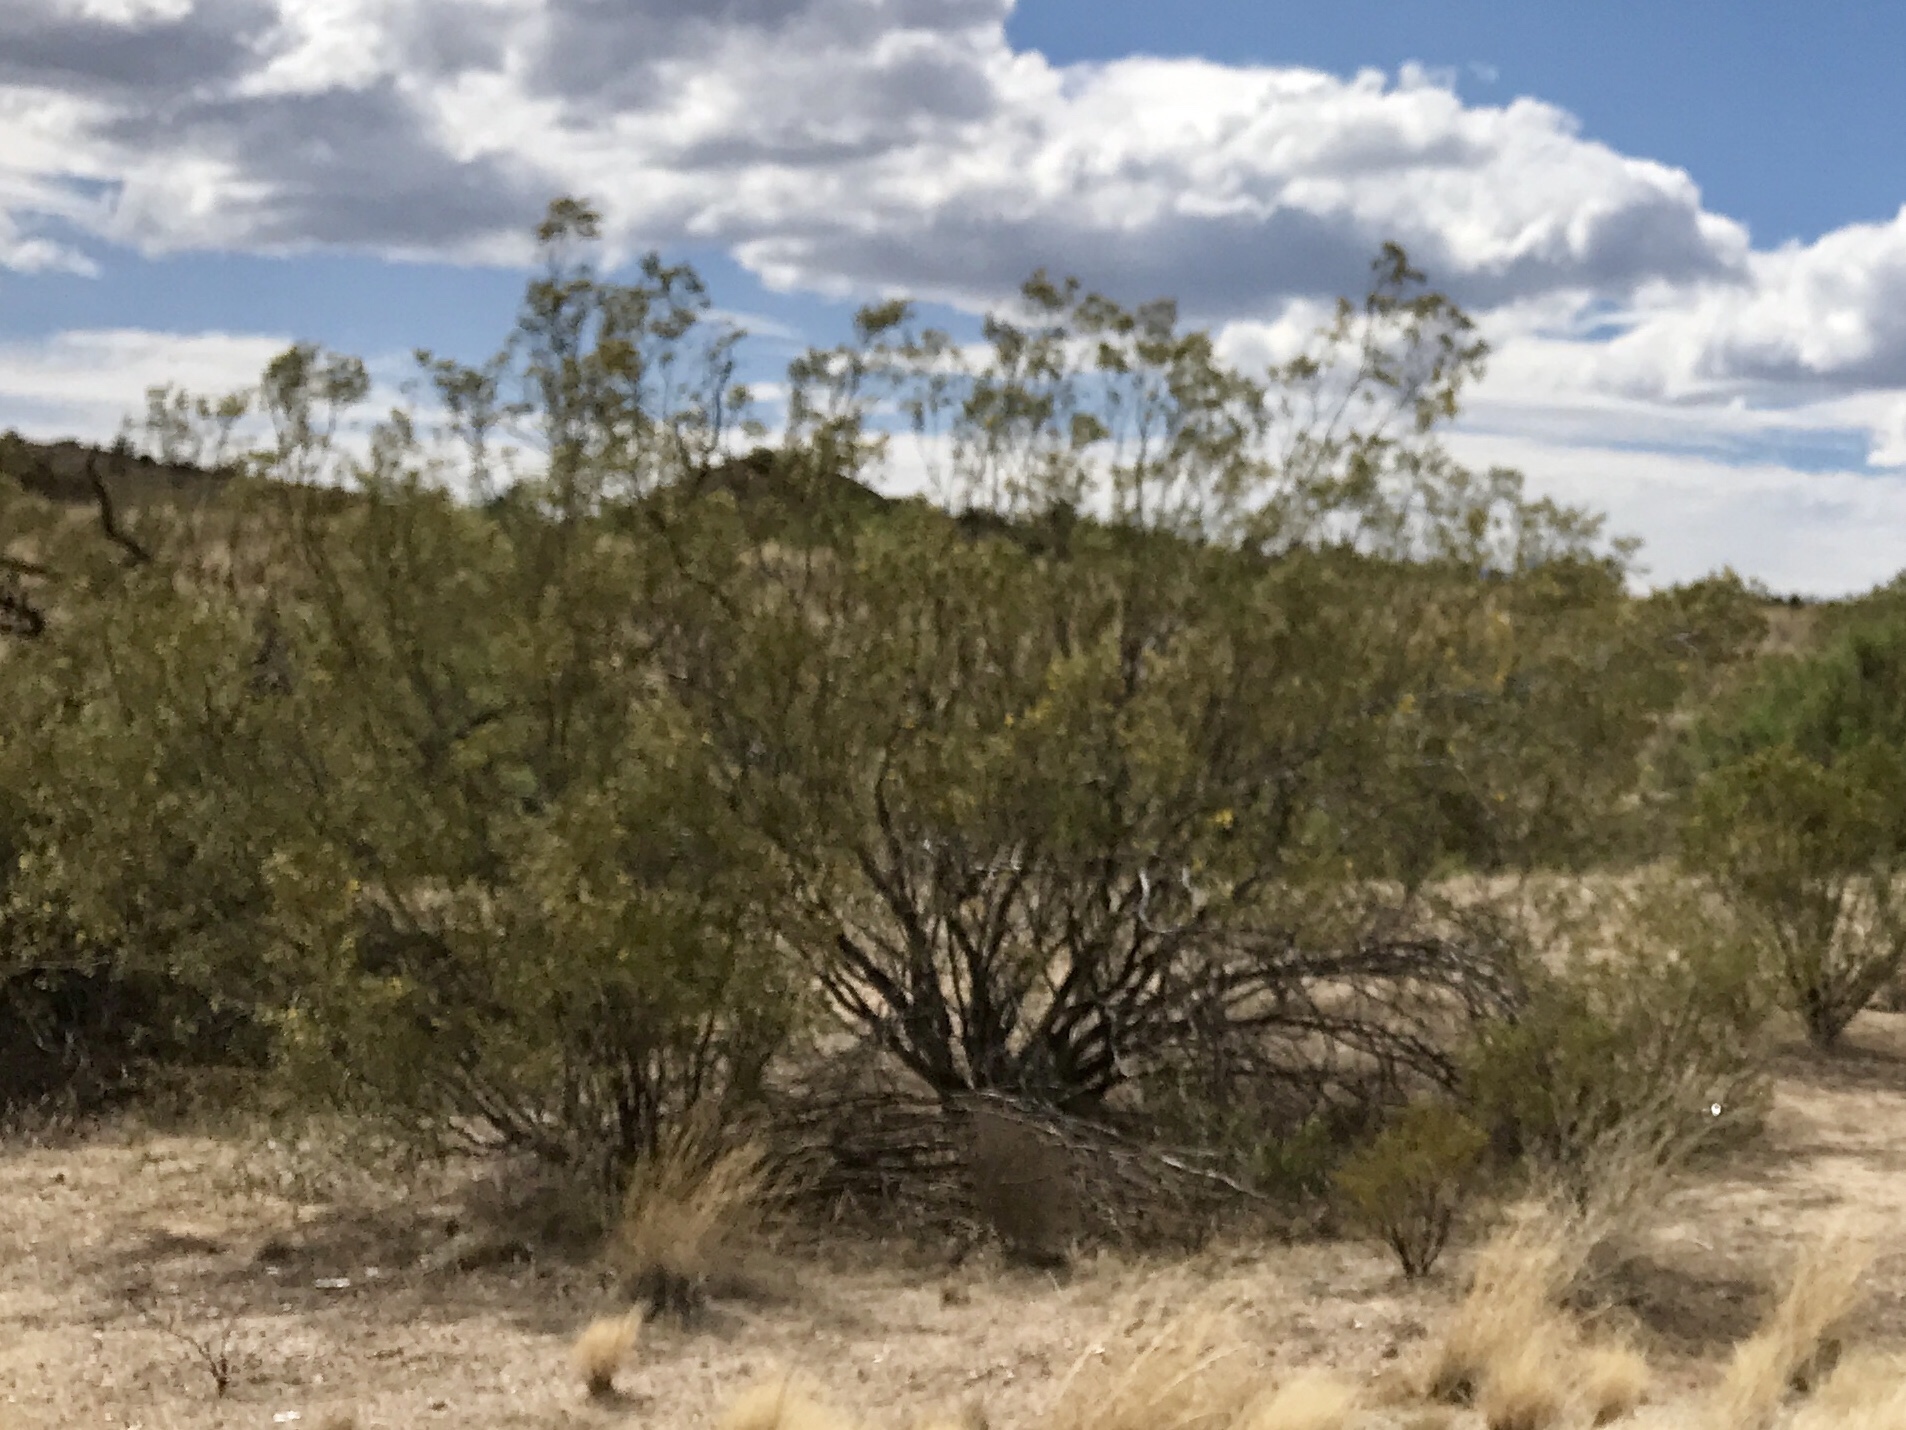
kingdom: Plantae
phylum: Tracheophyta
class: Magnoliopsida
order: Zygophyllales
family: Zygophyllaceae
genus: Larrea
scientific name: Larrea tridentata
